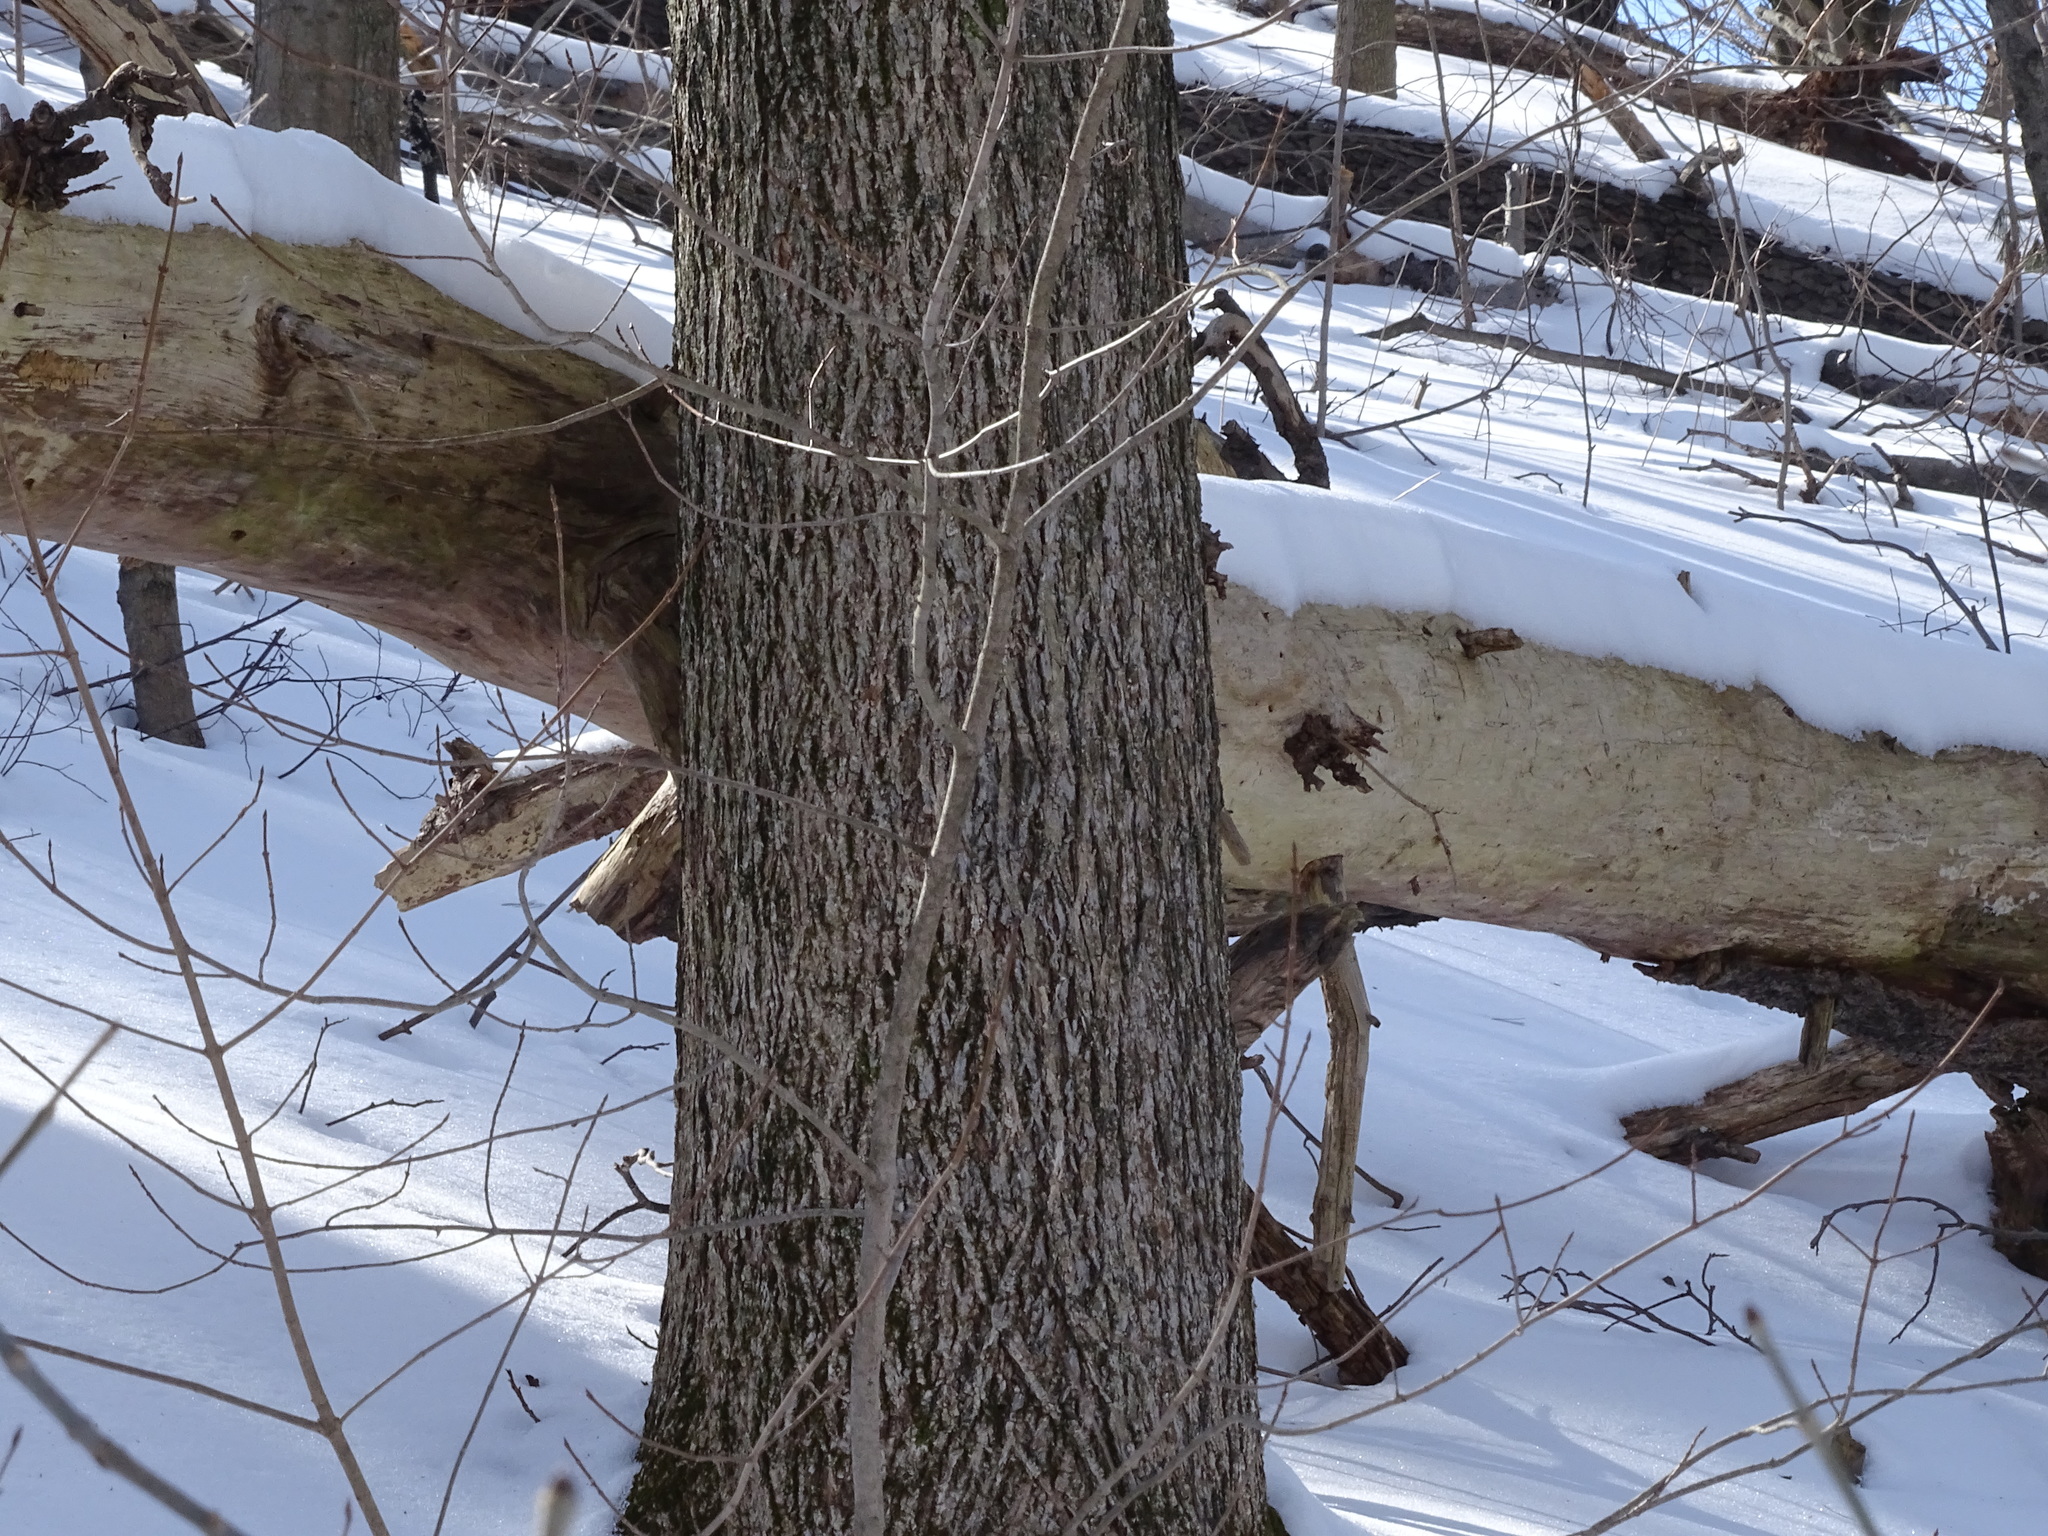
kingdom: Plantae
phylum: Tracheophyta
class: Magnoliopsida
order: Fagales
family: Juglandaceae
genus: Carya
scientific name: Carya cordiformis
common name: Bitternut hickory
